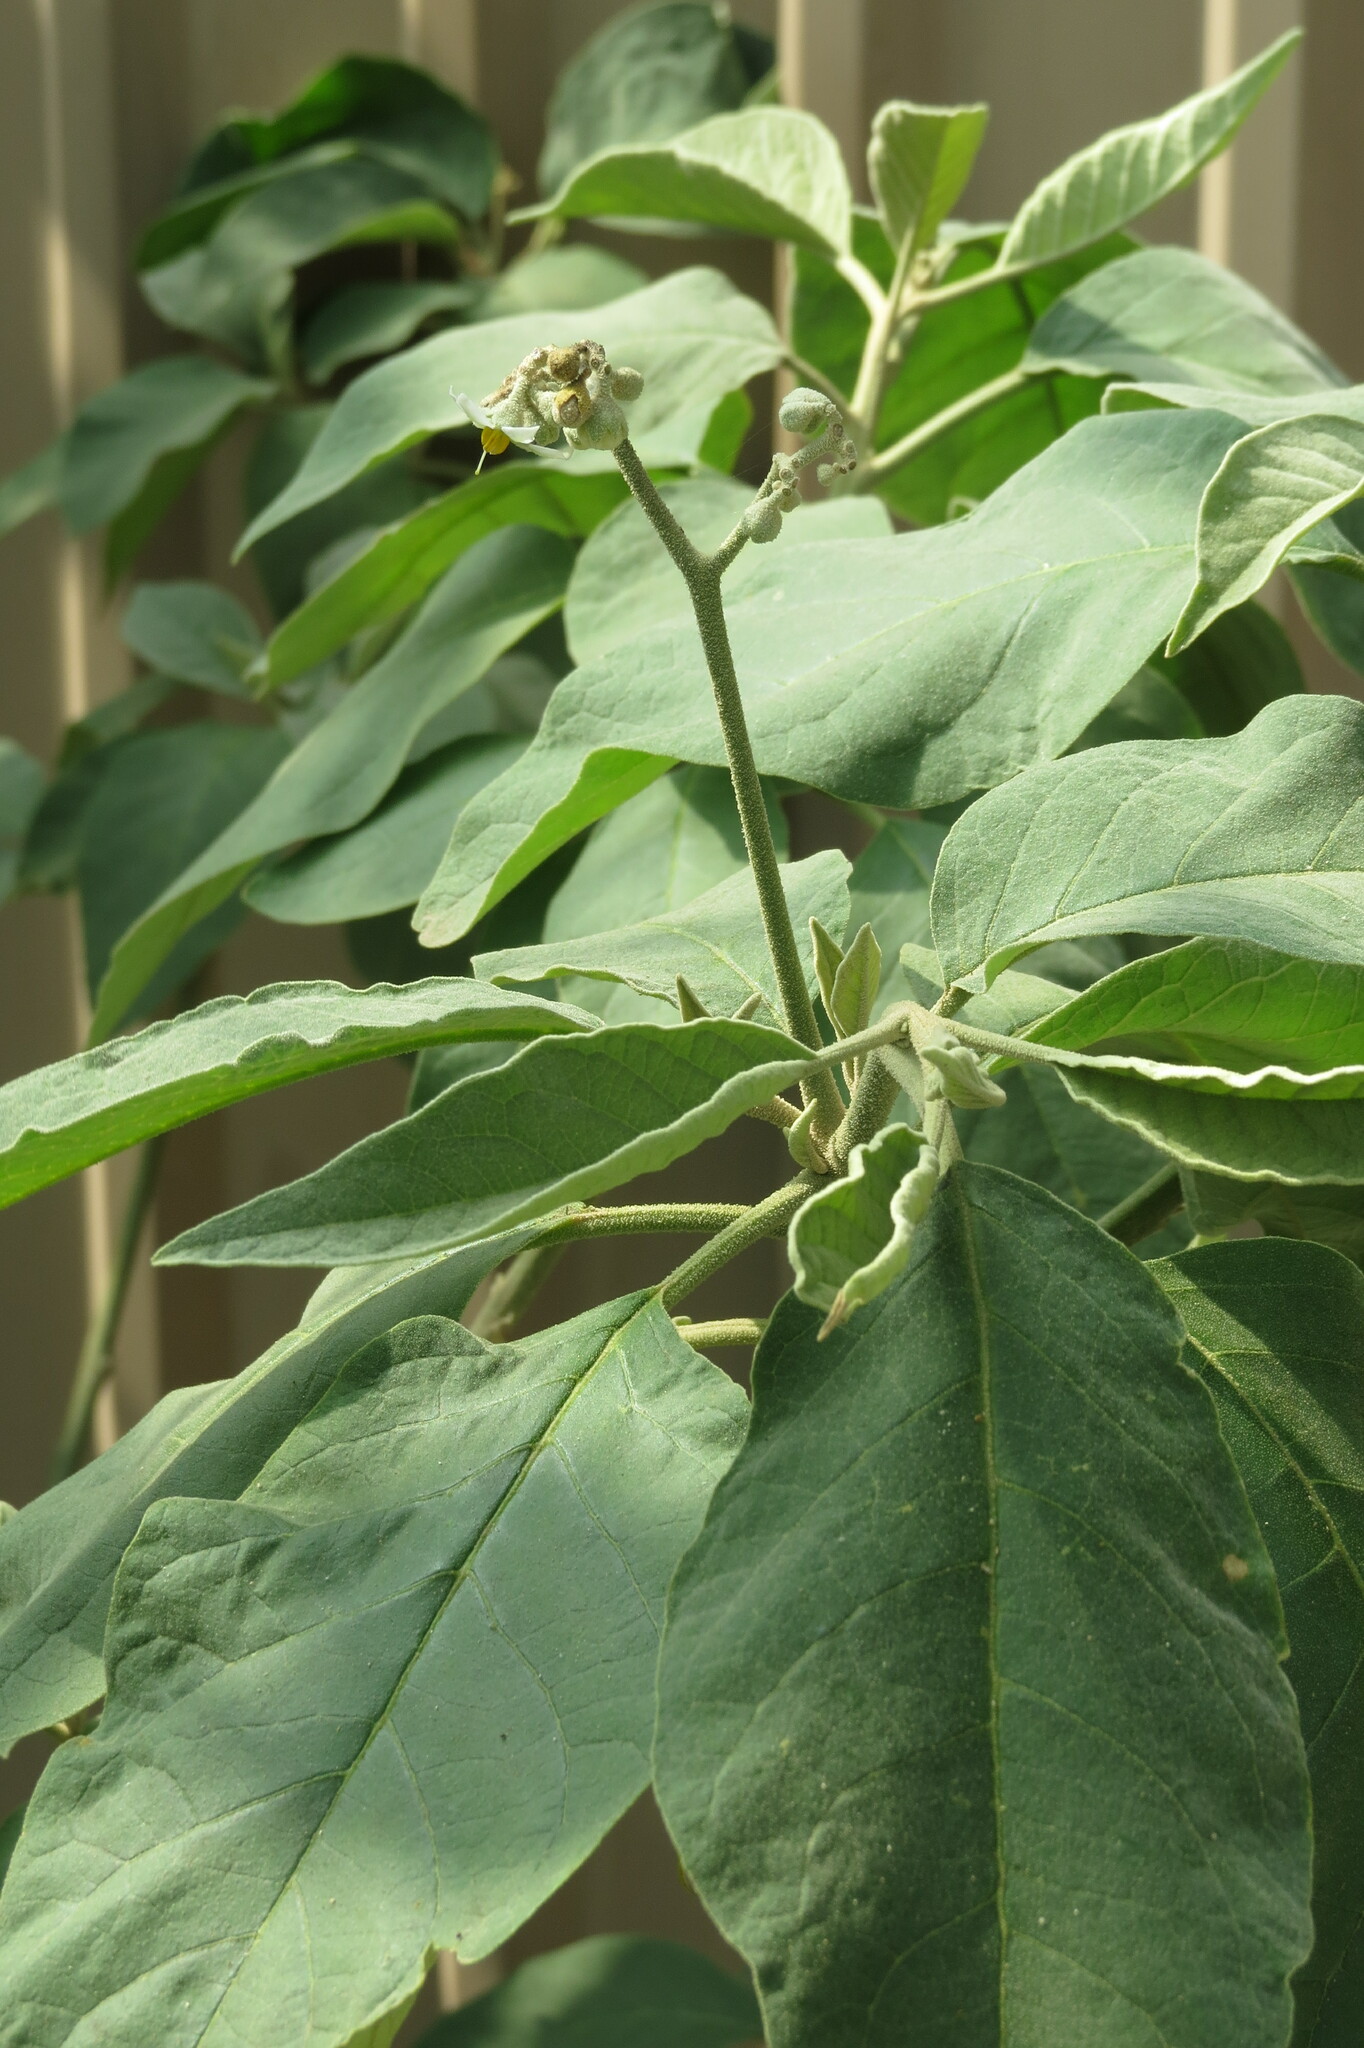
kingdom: Plantae
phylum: Tracheophyta
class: Magnoliopsida
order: Solanales
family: Solanaceae
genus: Solanum
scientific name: Solanum erianthum
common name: Tobacco-tree
